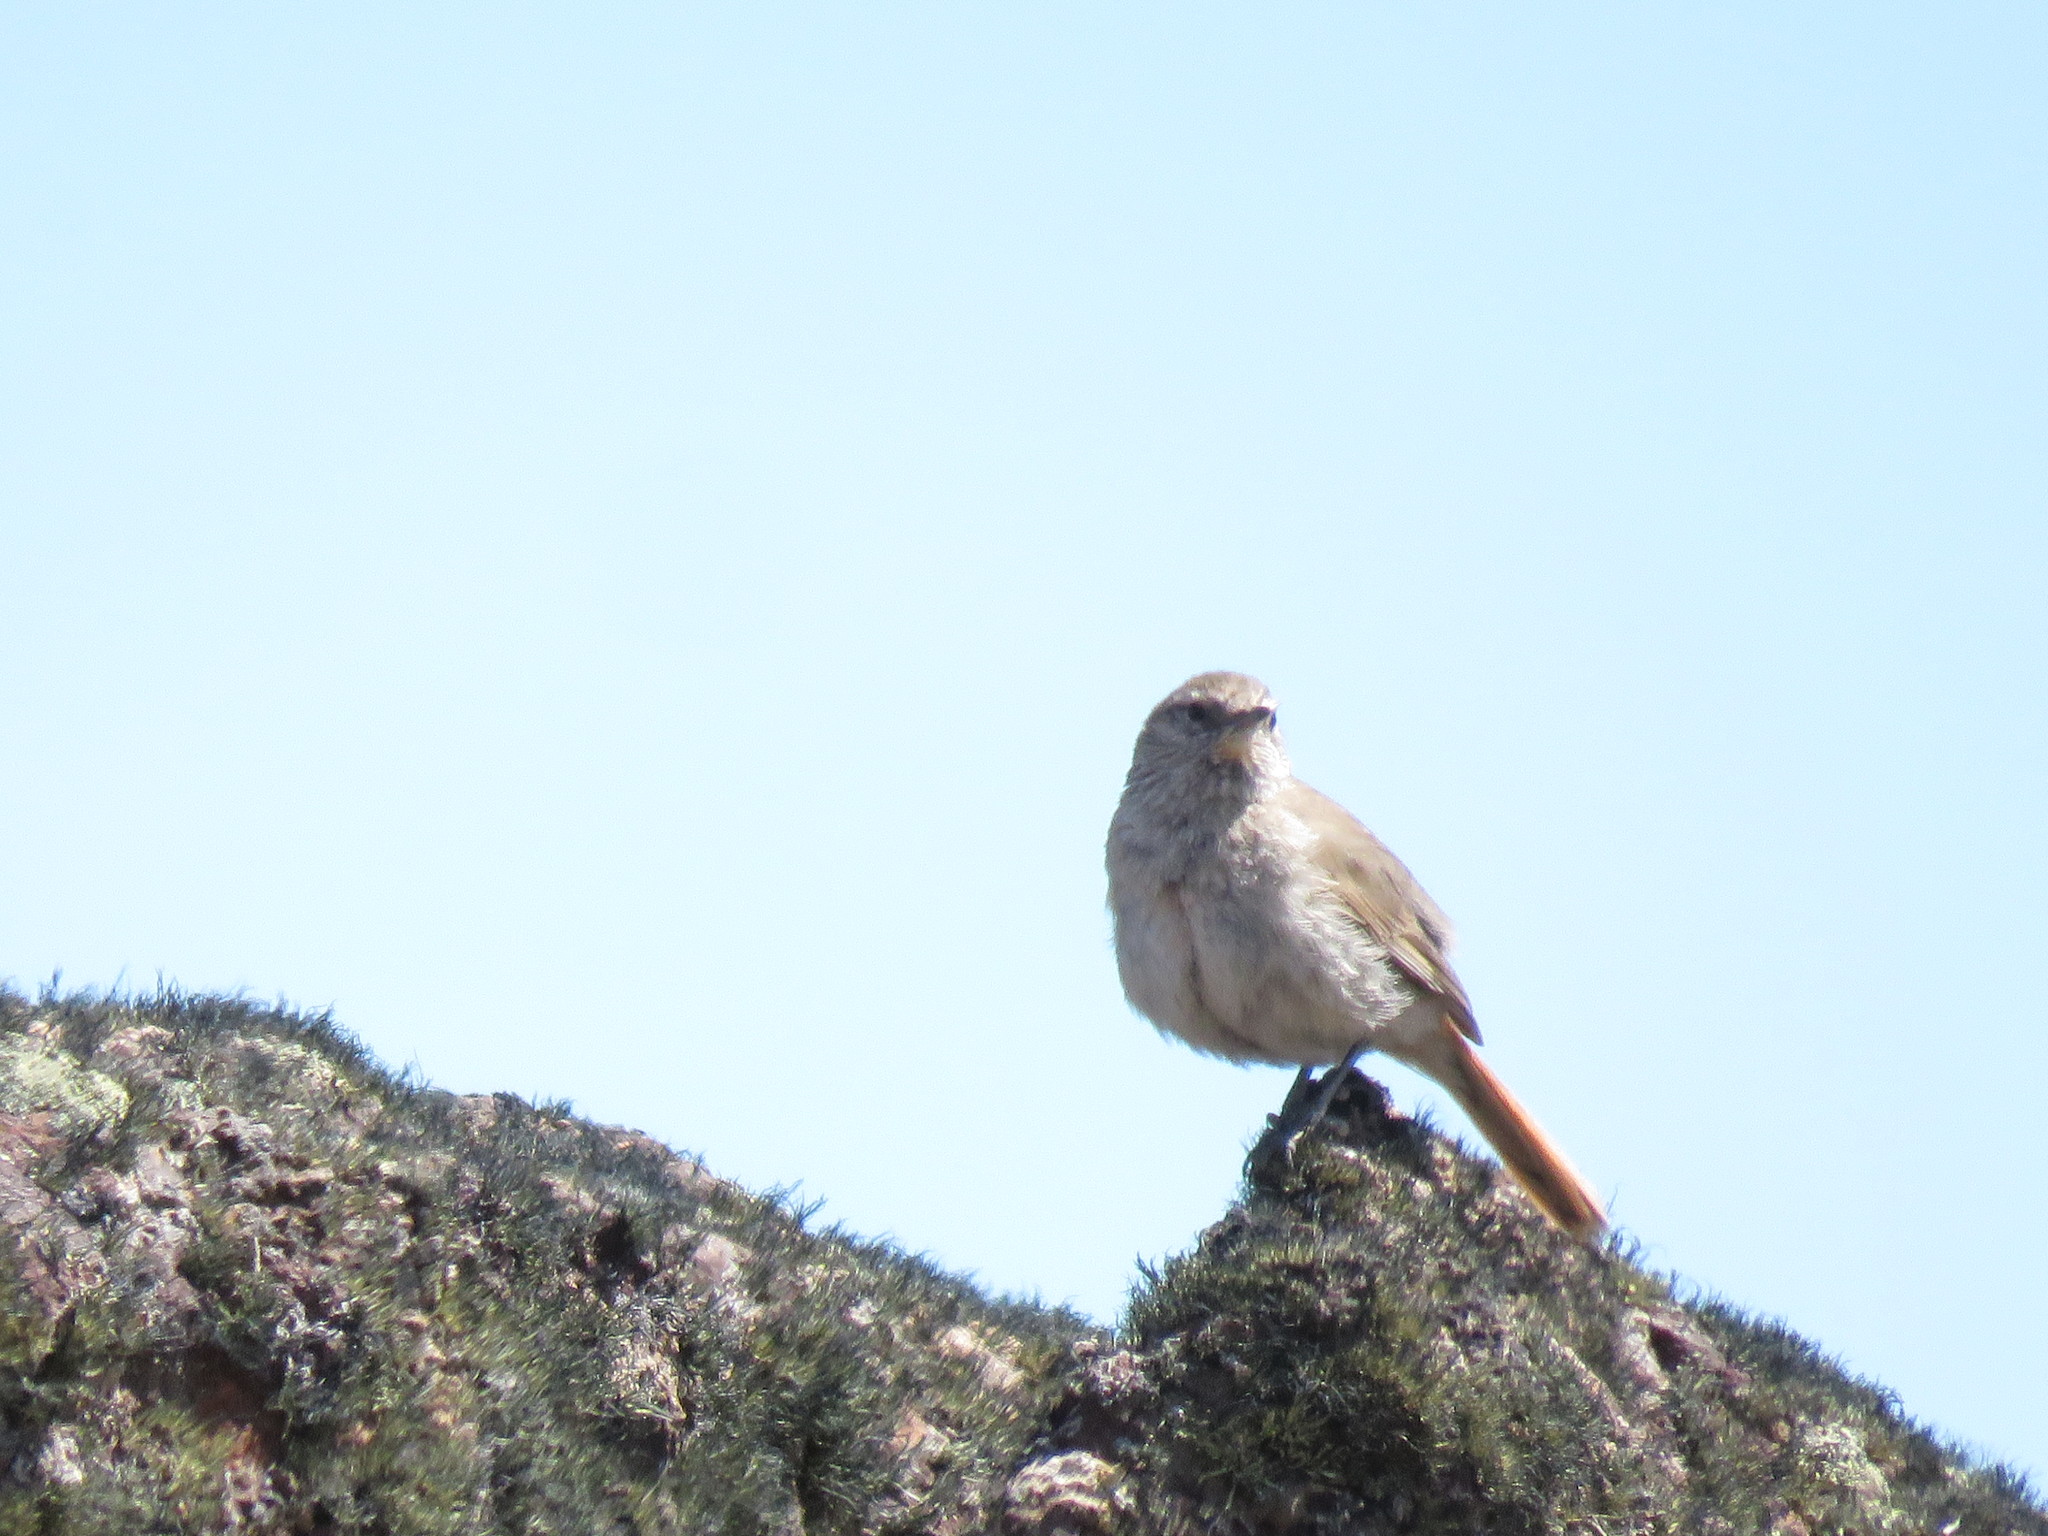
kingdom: Animalia
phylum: Chordata
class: Aves
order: Passeriformes
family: Furnariidae
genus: Asthenes
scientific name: Asthenes modesta
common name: Cordilleran canastero
